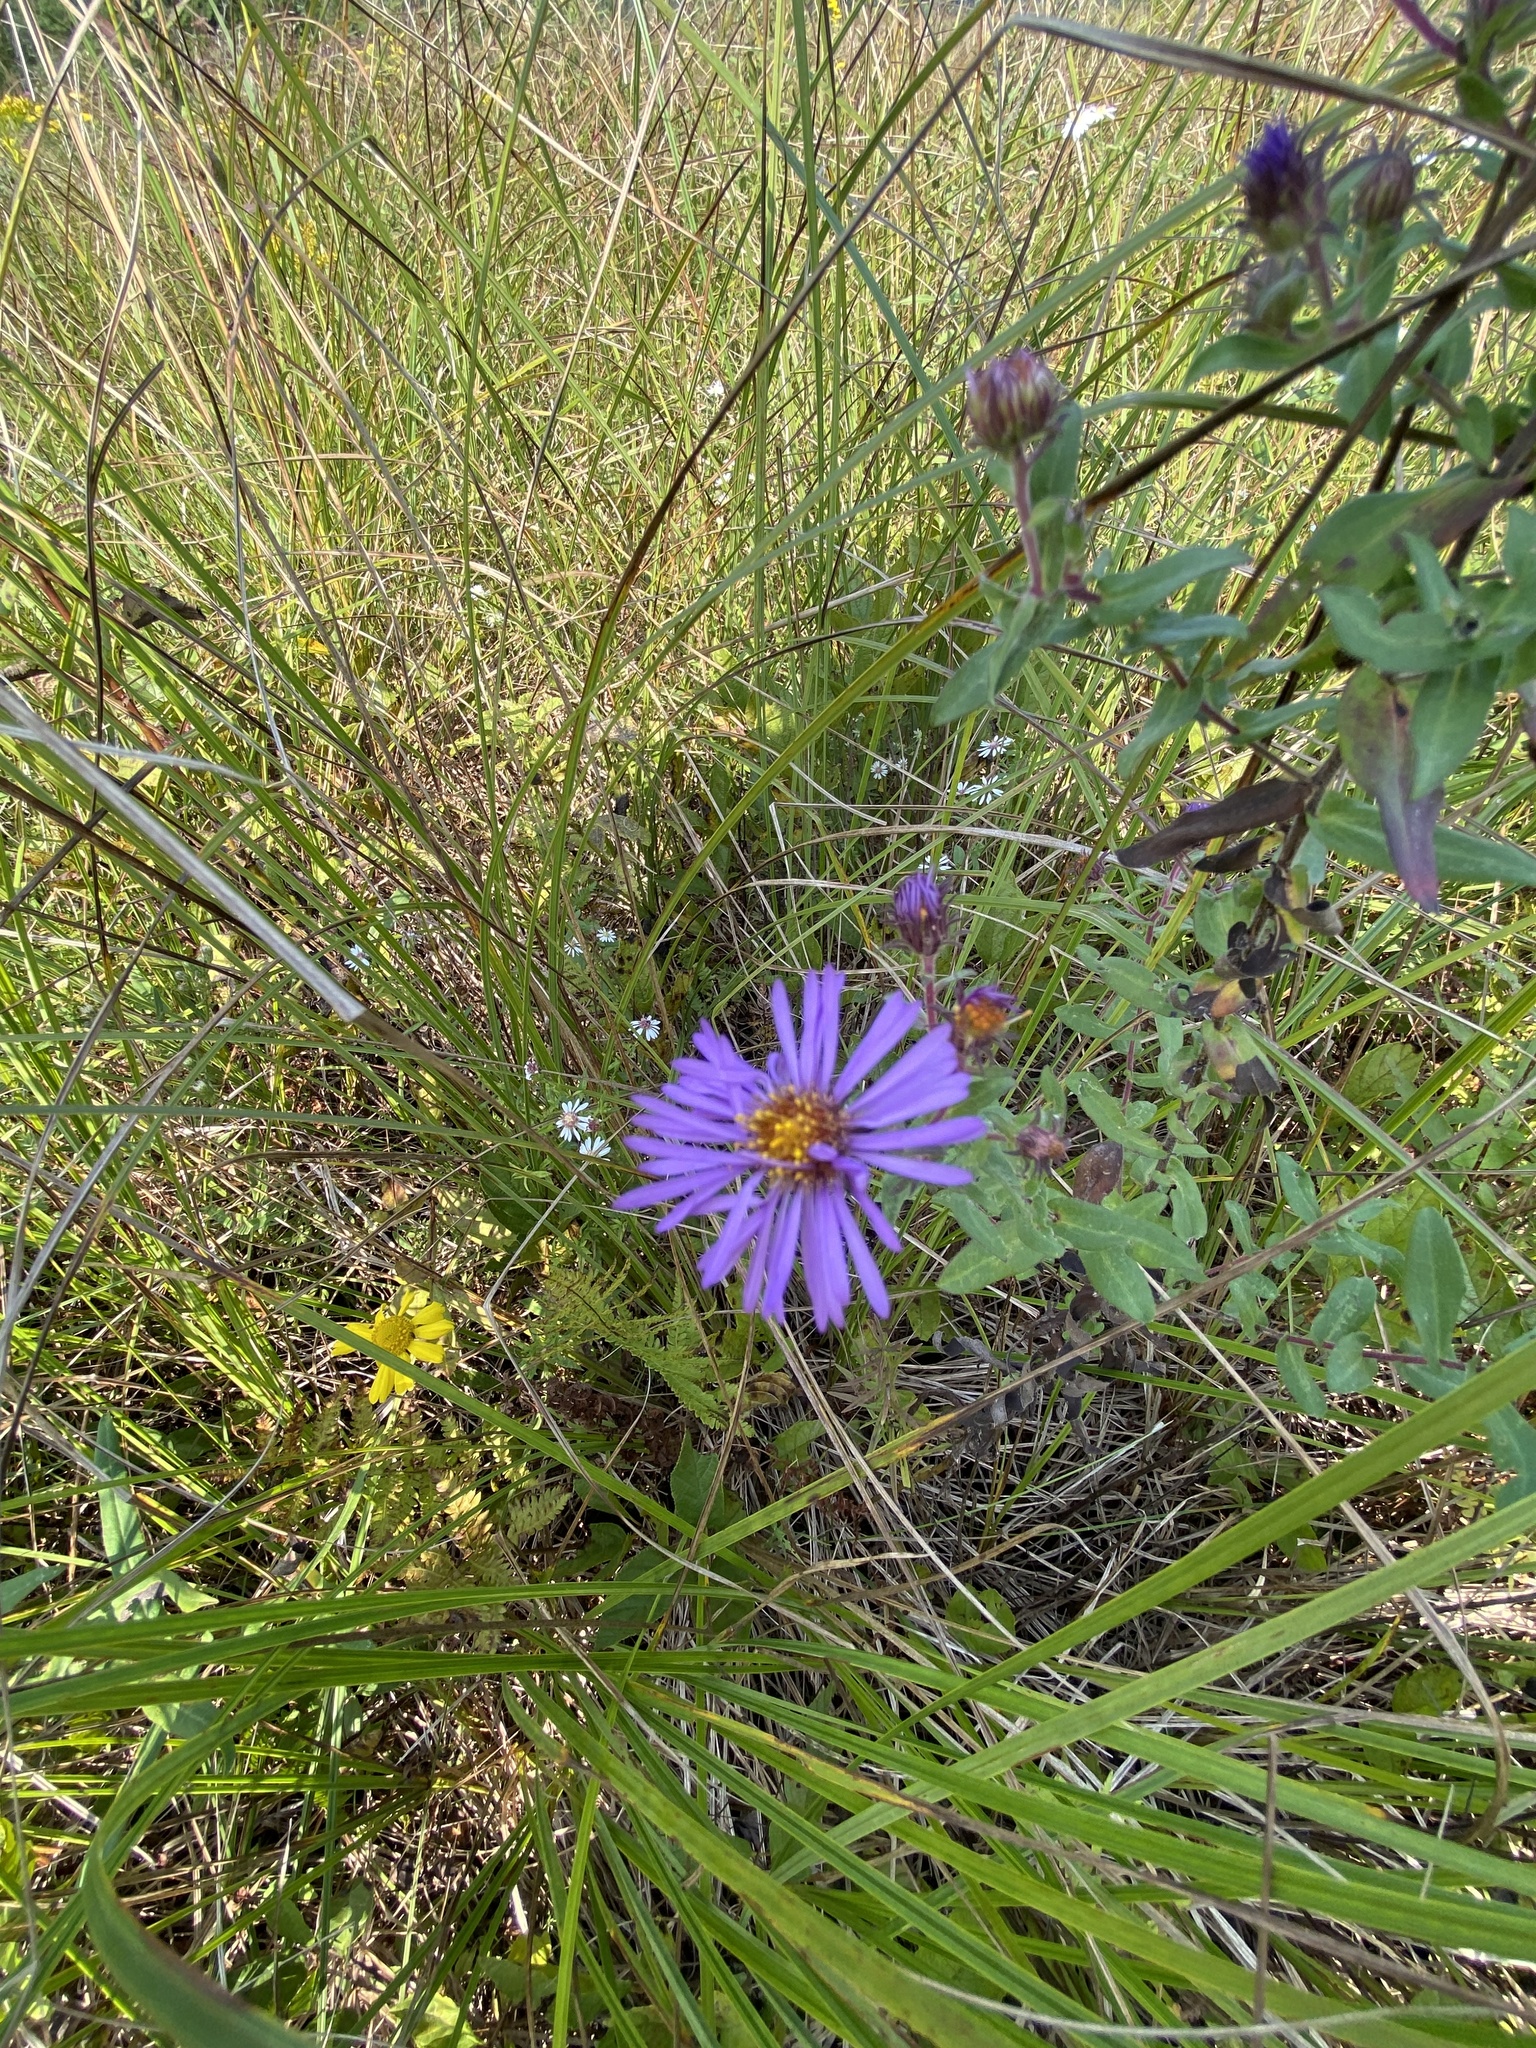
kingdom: Plantae
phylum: Tracheophyta
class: Magnoliopsida
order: Asterales
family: Asteraceae
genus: Symphyotrichum
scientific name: Symphyotrichum novae-angliae
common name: Michaelmas daisy
